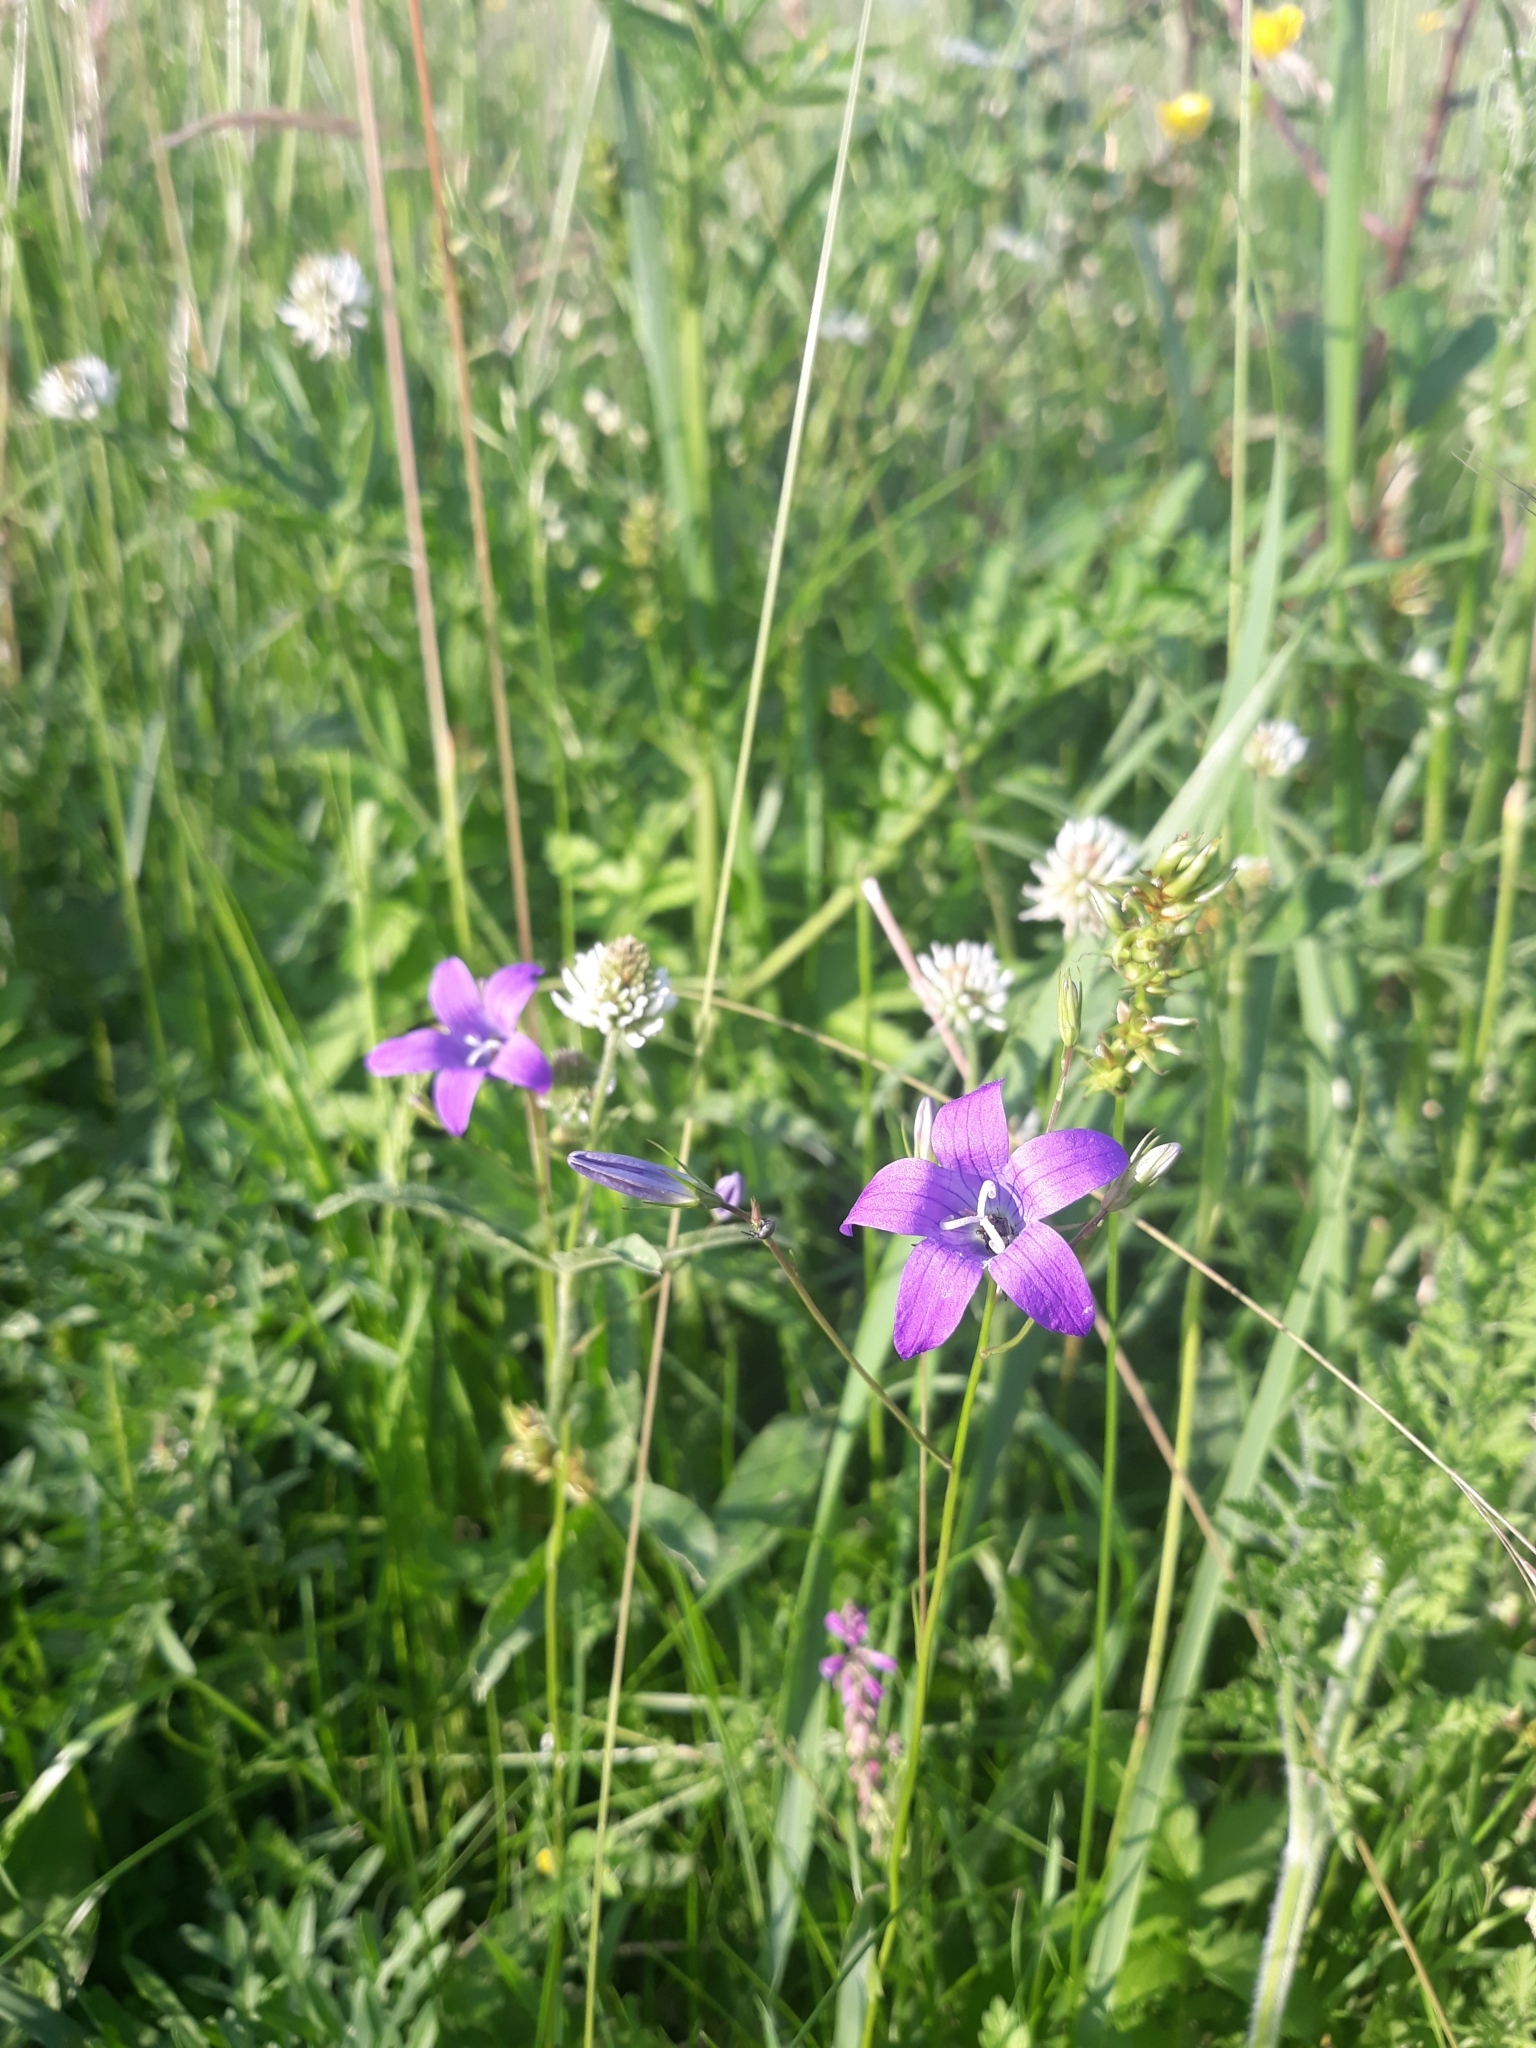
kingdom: Plantae
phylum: Tracheophyta
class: Magnoliopsida
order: Asterales
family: Campanulaceae
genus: Campanula
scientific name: Campanula patula
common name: Spreading bellflower
